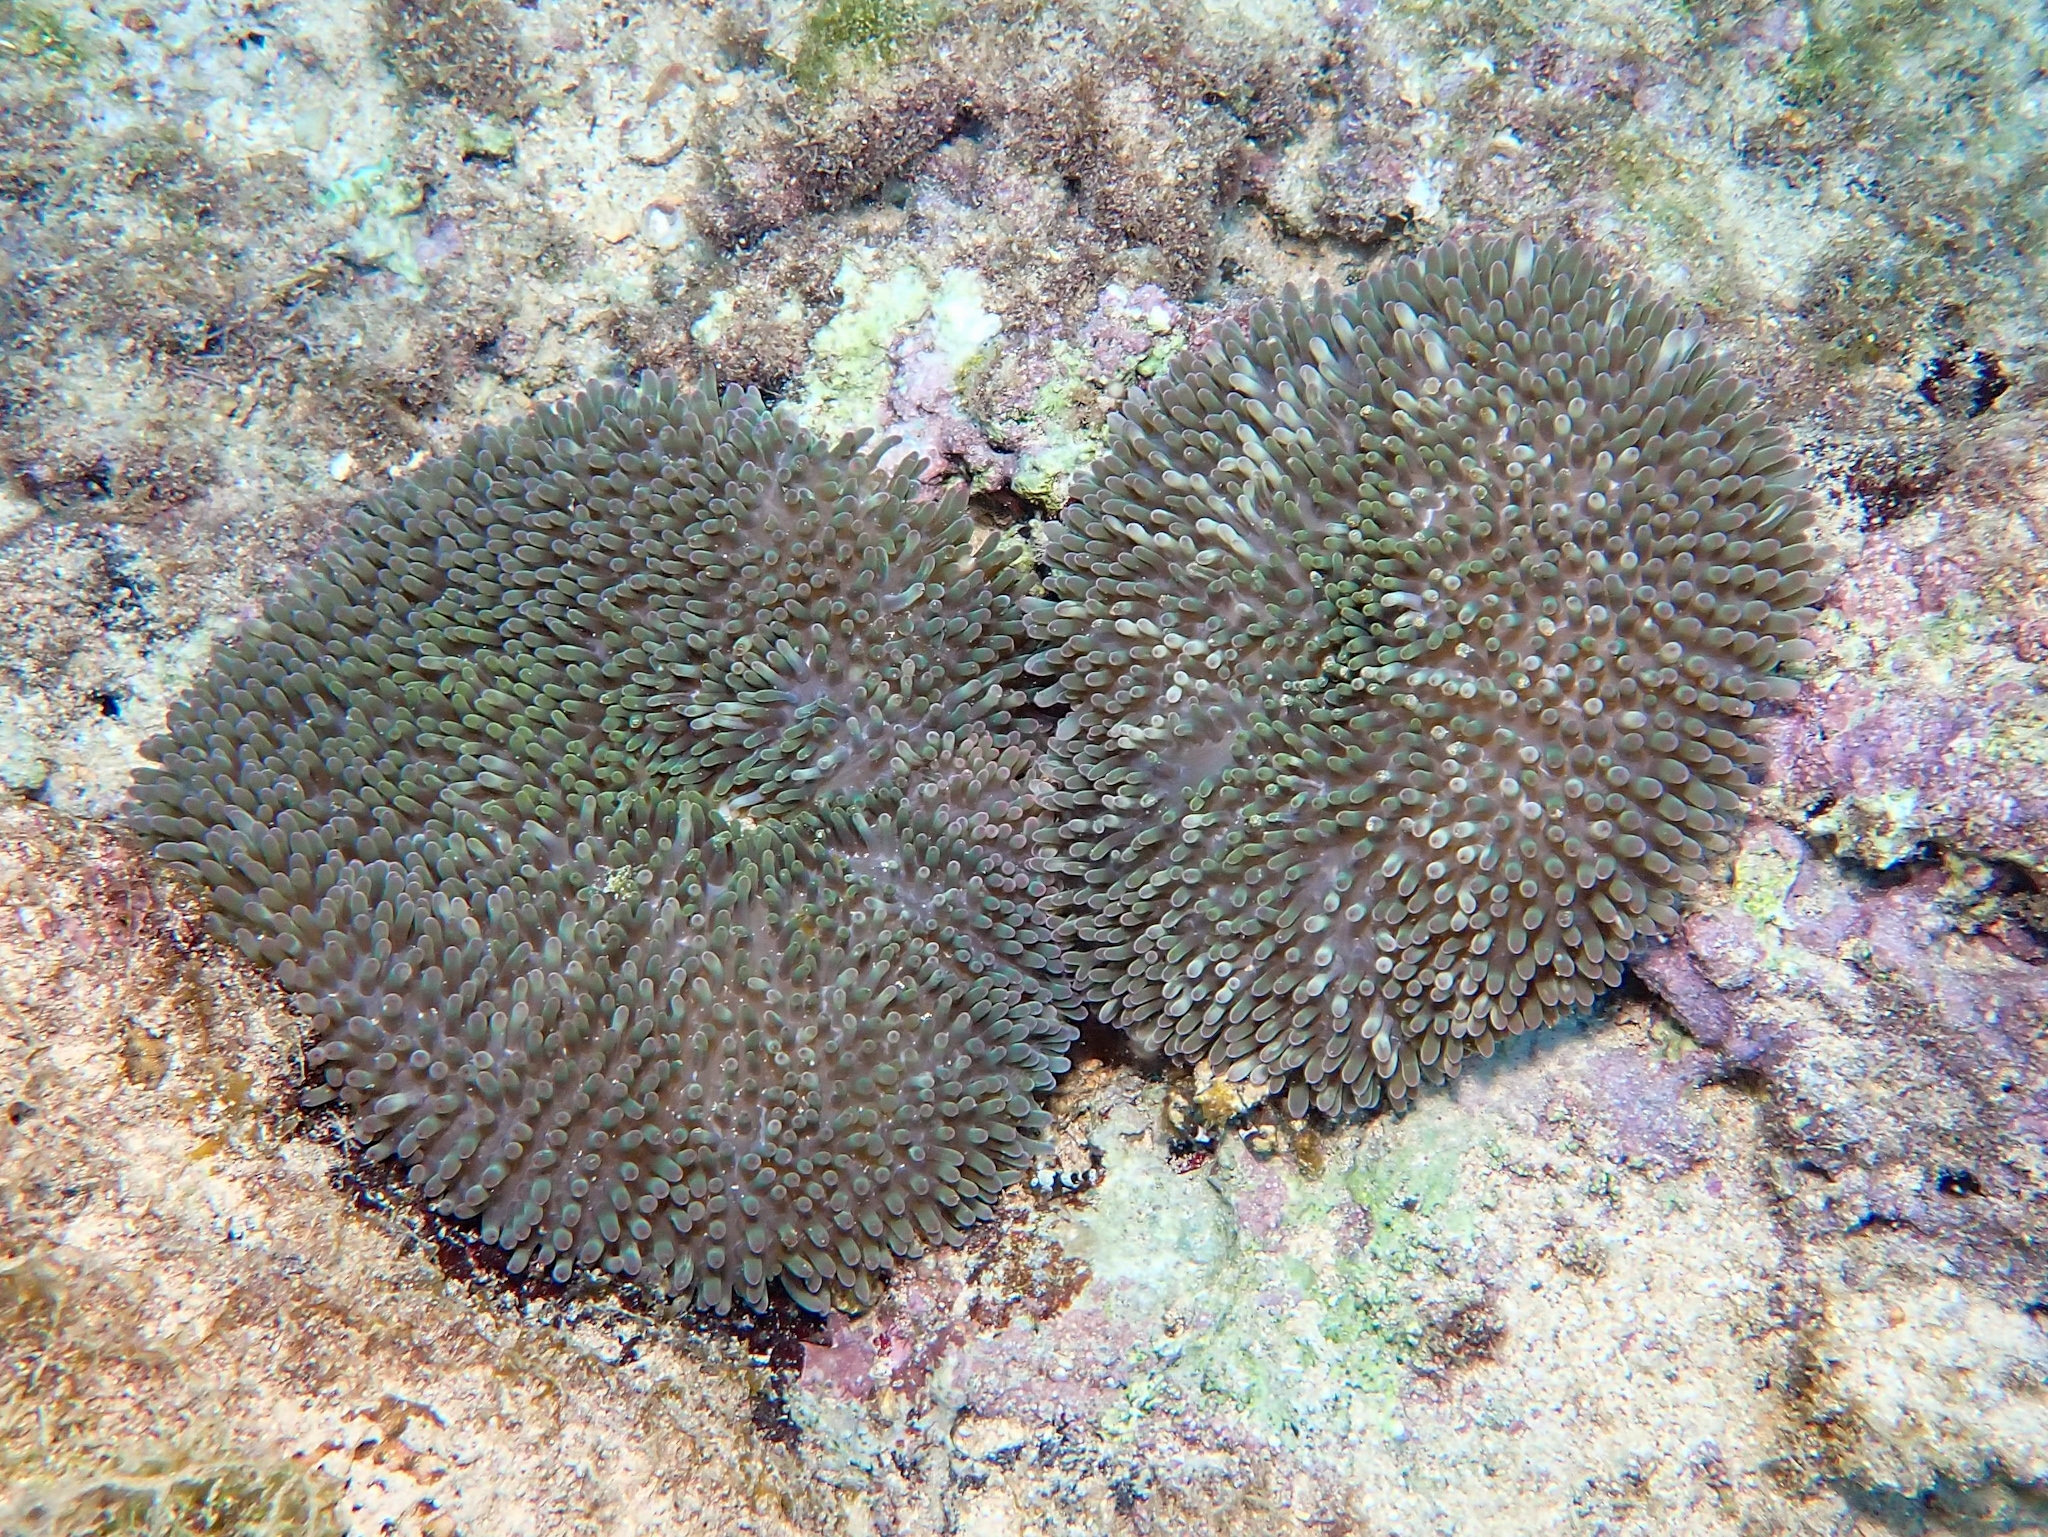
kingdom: Animalia
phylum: Cnidaria
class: Anthozoa
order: Actiniaria
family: Stichodactylidae
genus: Stichodactyla
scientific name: Stichodactyla helianthus
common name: Sun anemone
